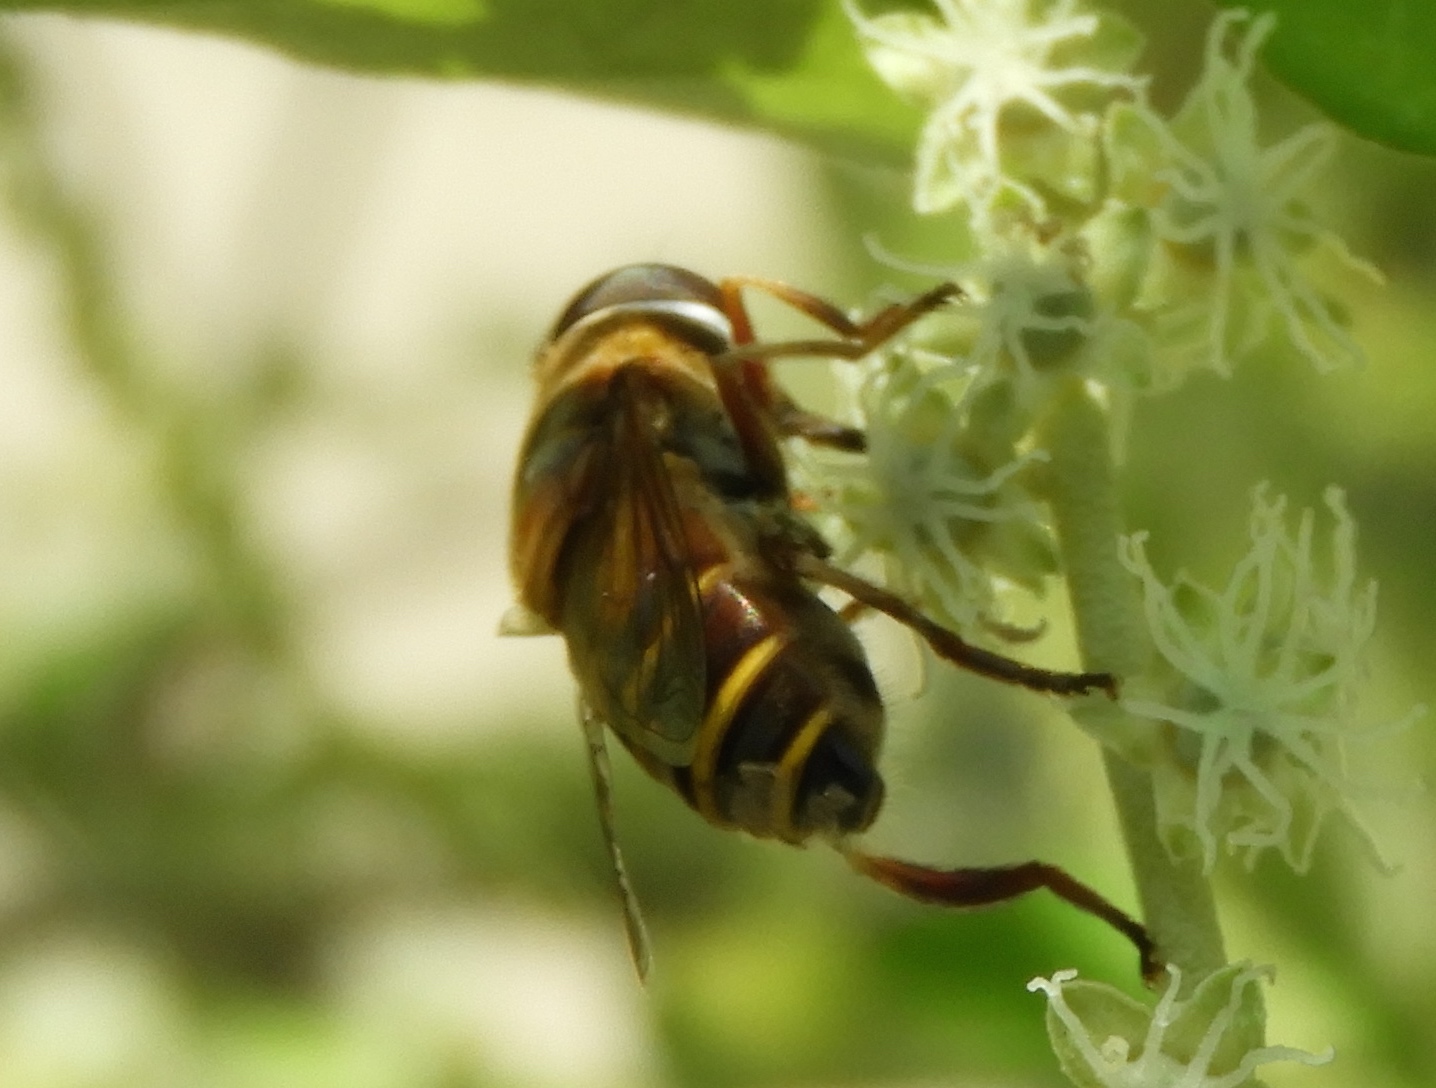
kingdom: Animalia
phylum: Arthropoda
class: Insecta
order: Diptera
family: Syrphidae
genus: Palpada
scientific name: Palpada
